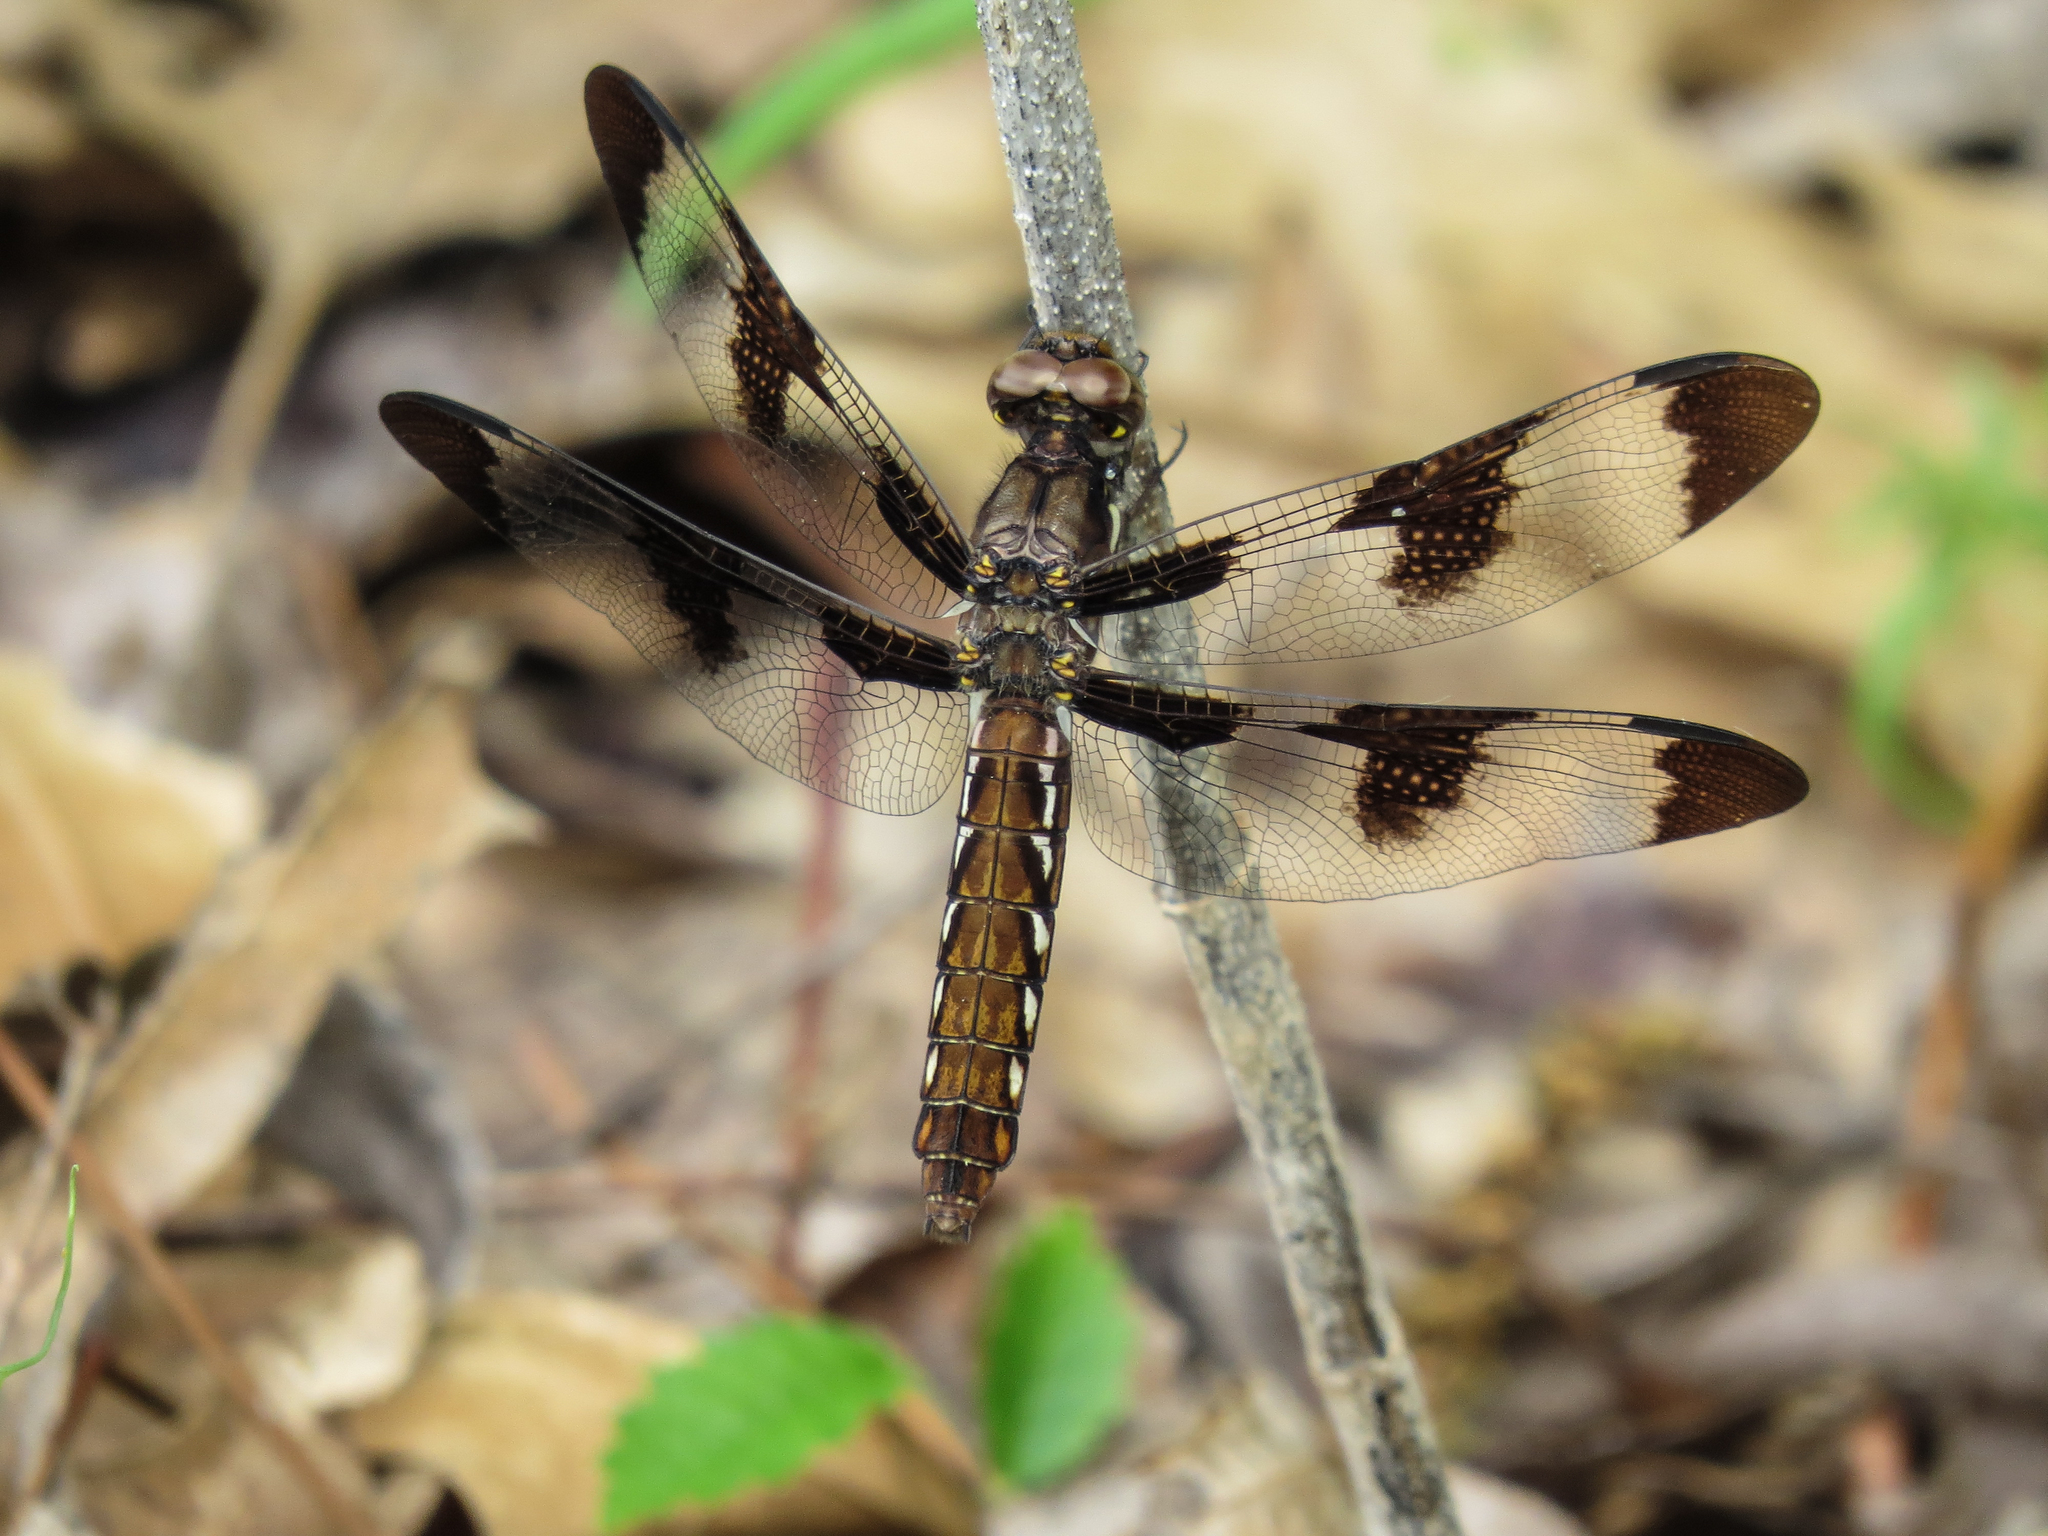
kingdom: Animalia
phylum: Arthropoda
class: Insecta
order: Odonata
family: Libellulidae
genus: Plathemis
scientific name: Plathemis lydia
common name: Common whitetail
